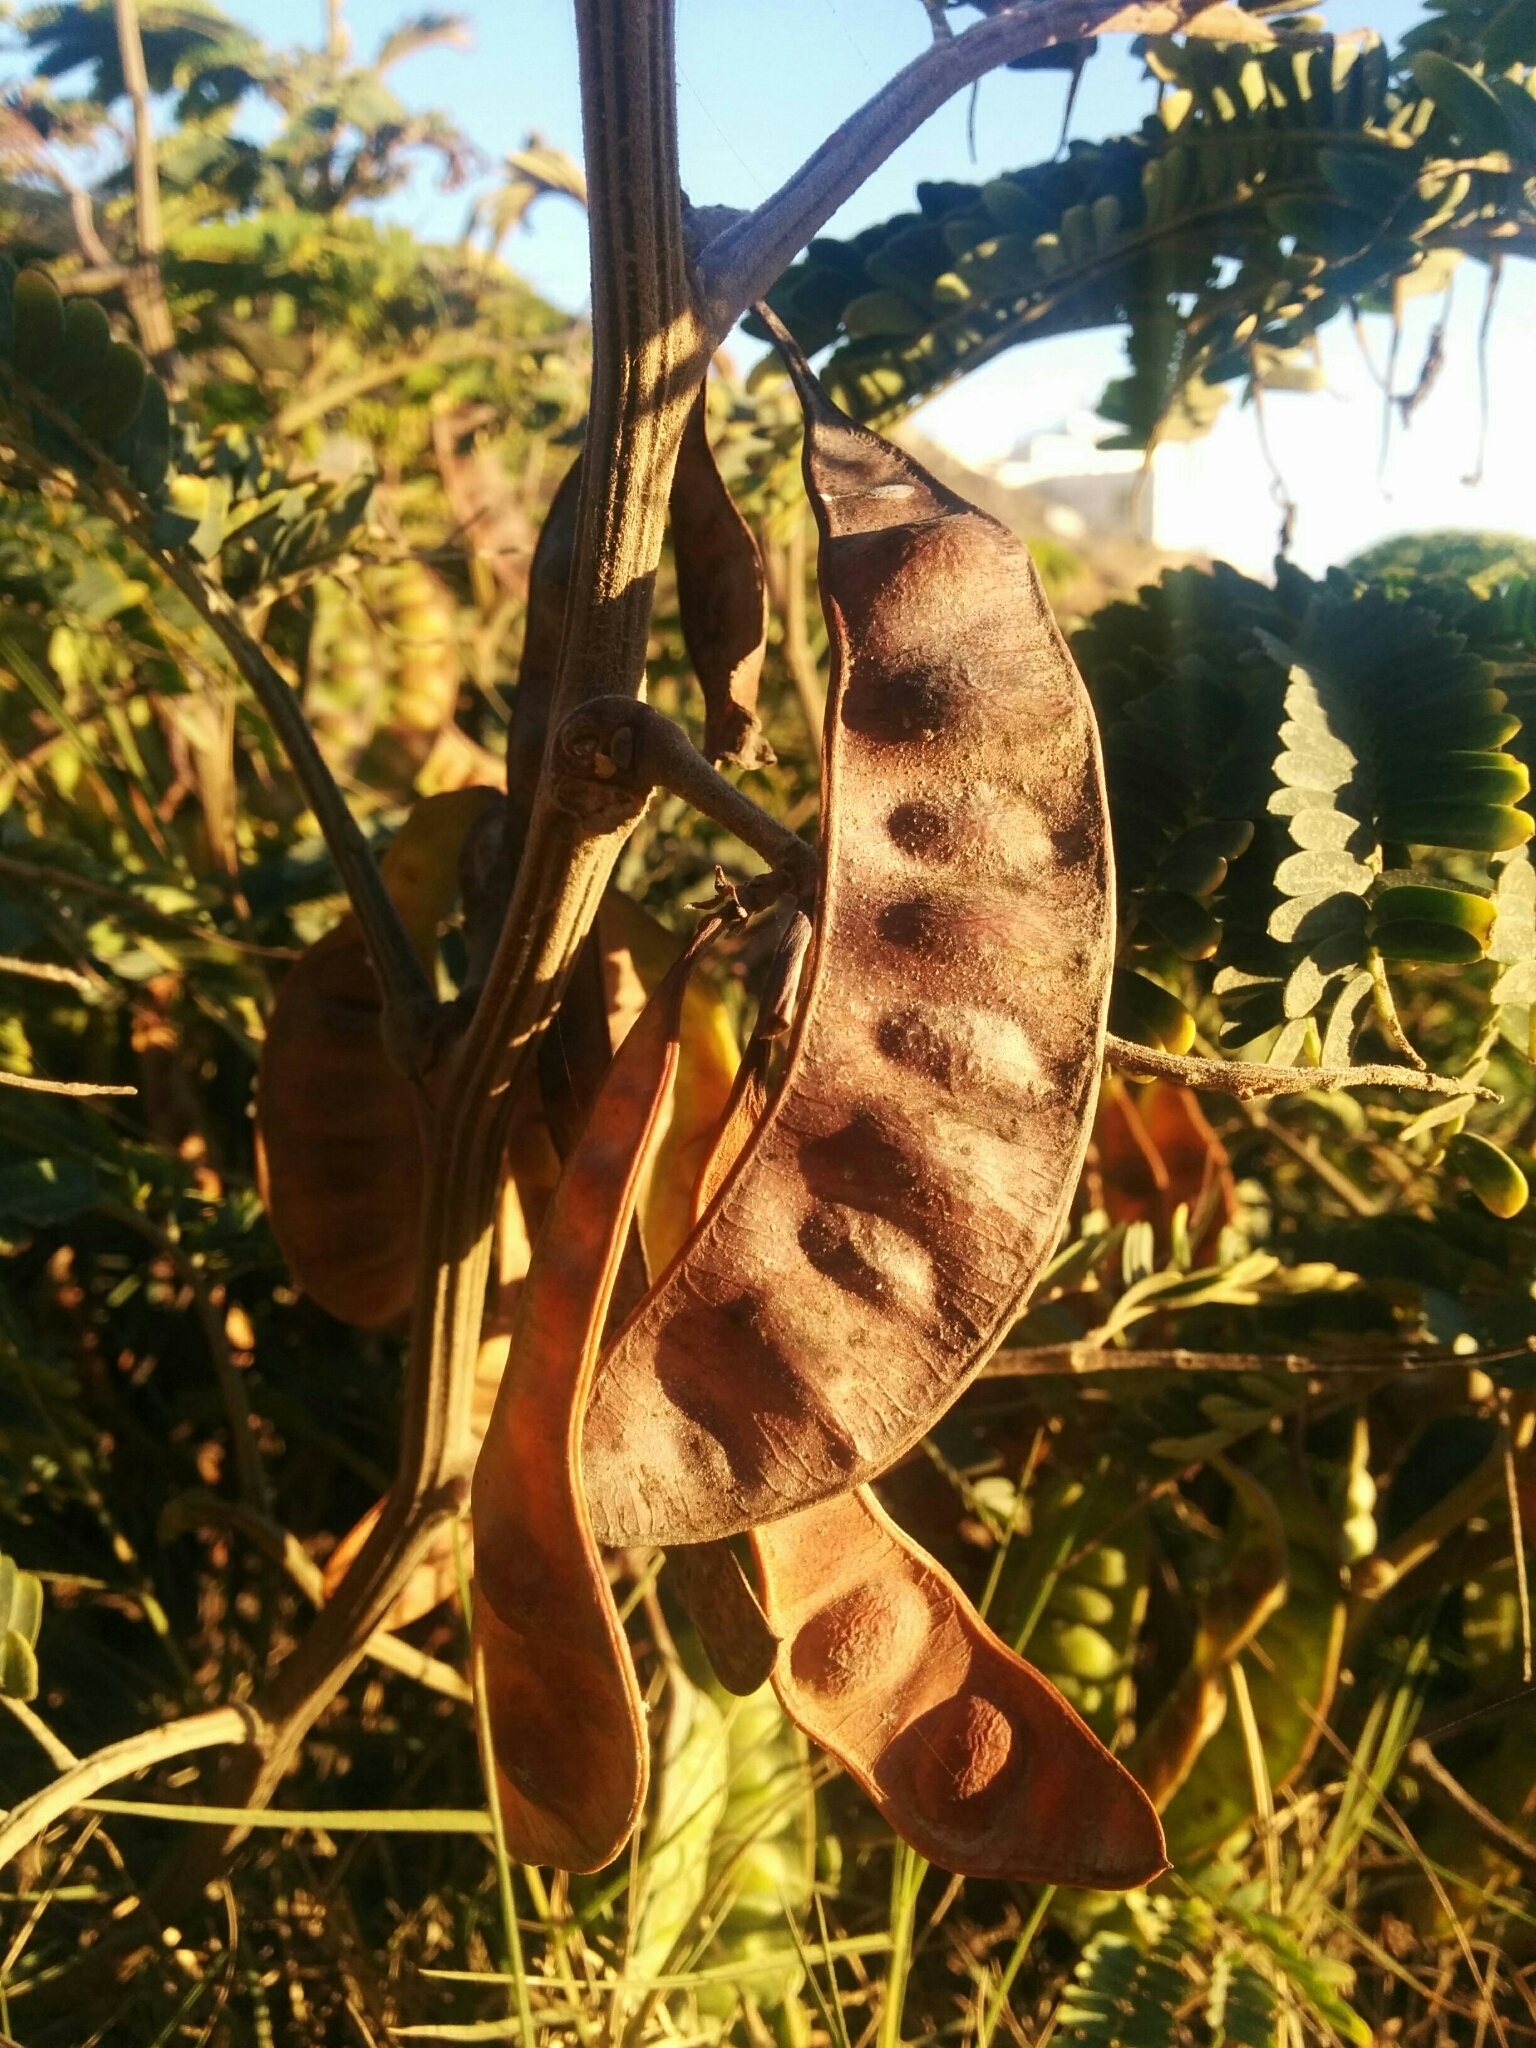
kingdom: Plantae
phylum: Tracheophyta
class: Magnoliopsida
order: Fabales
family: Fabaceae
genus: Paraserianthes
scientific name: Paraserianthes lophantha
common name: Plume albizia
